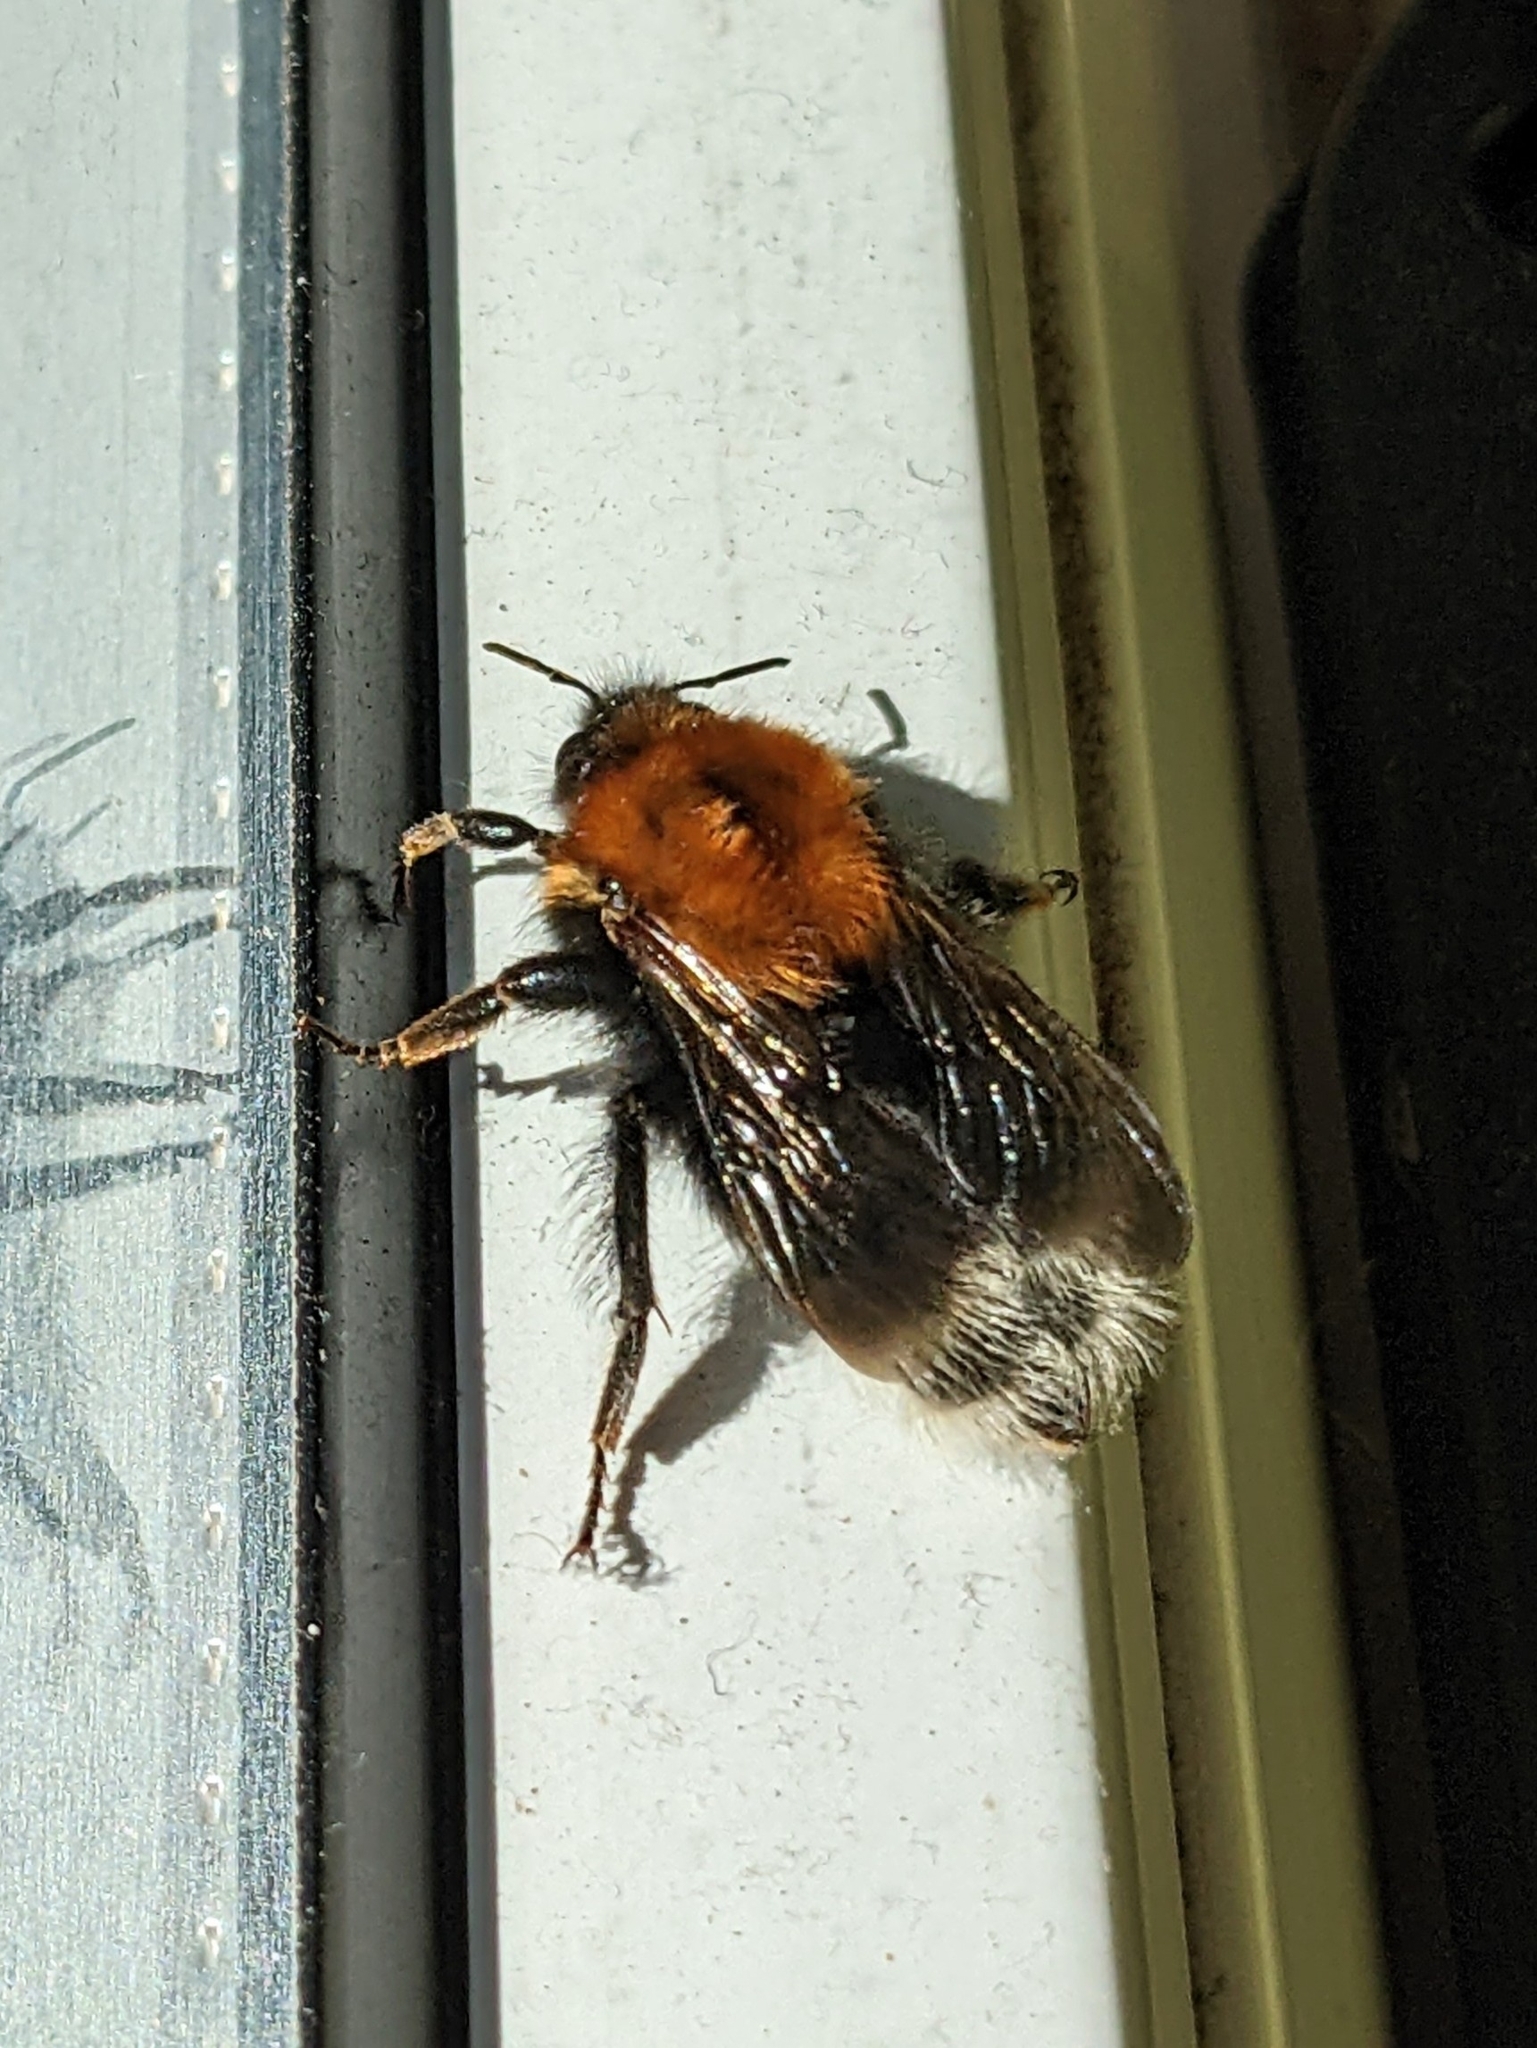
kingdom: Animalia
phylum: Arthropoda
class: Insecta
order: Hymenoptera
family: Apidae
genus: Bombus
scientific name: Bombus hypnorum
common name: New garden bumblebee
